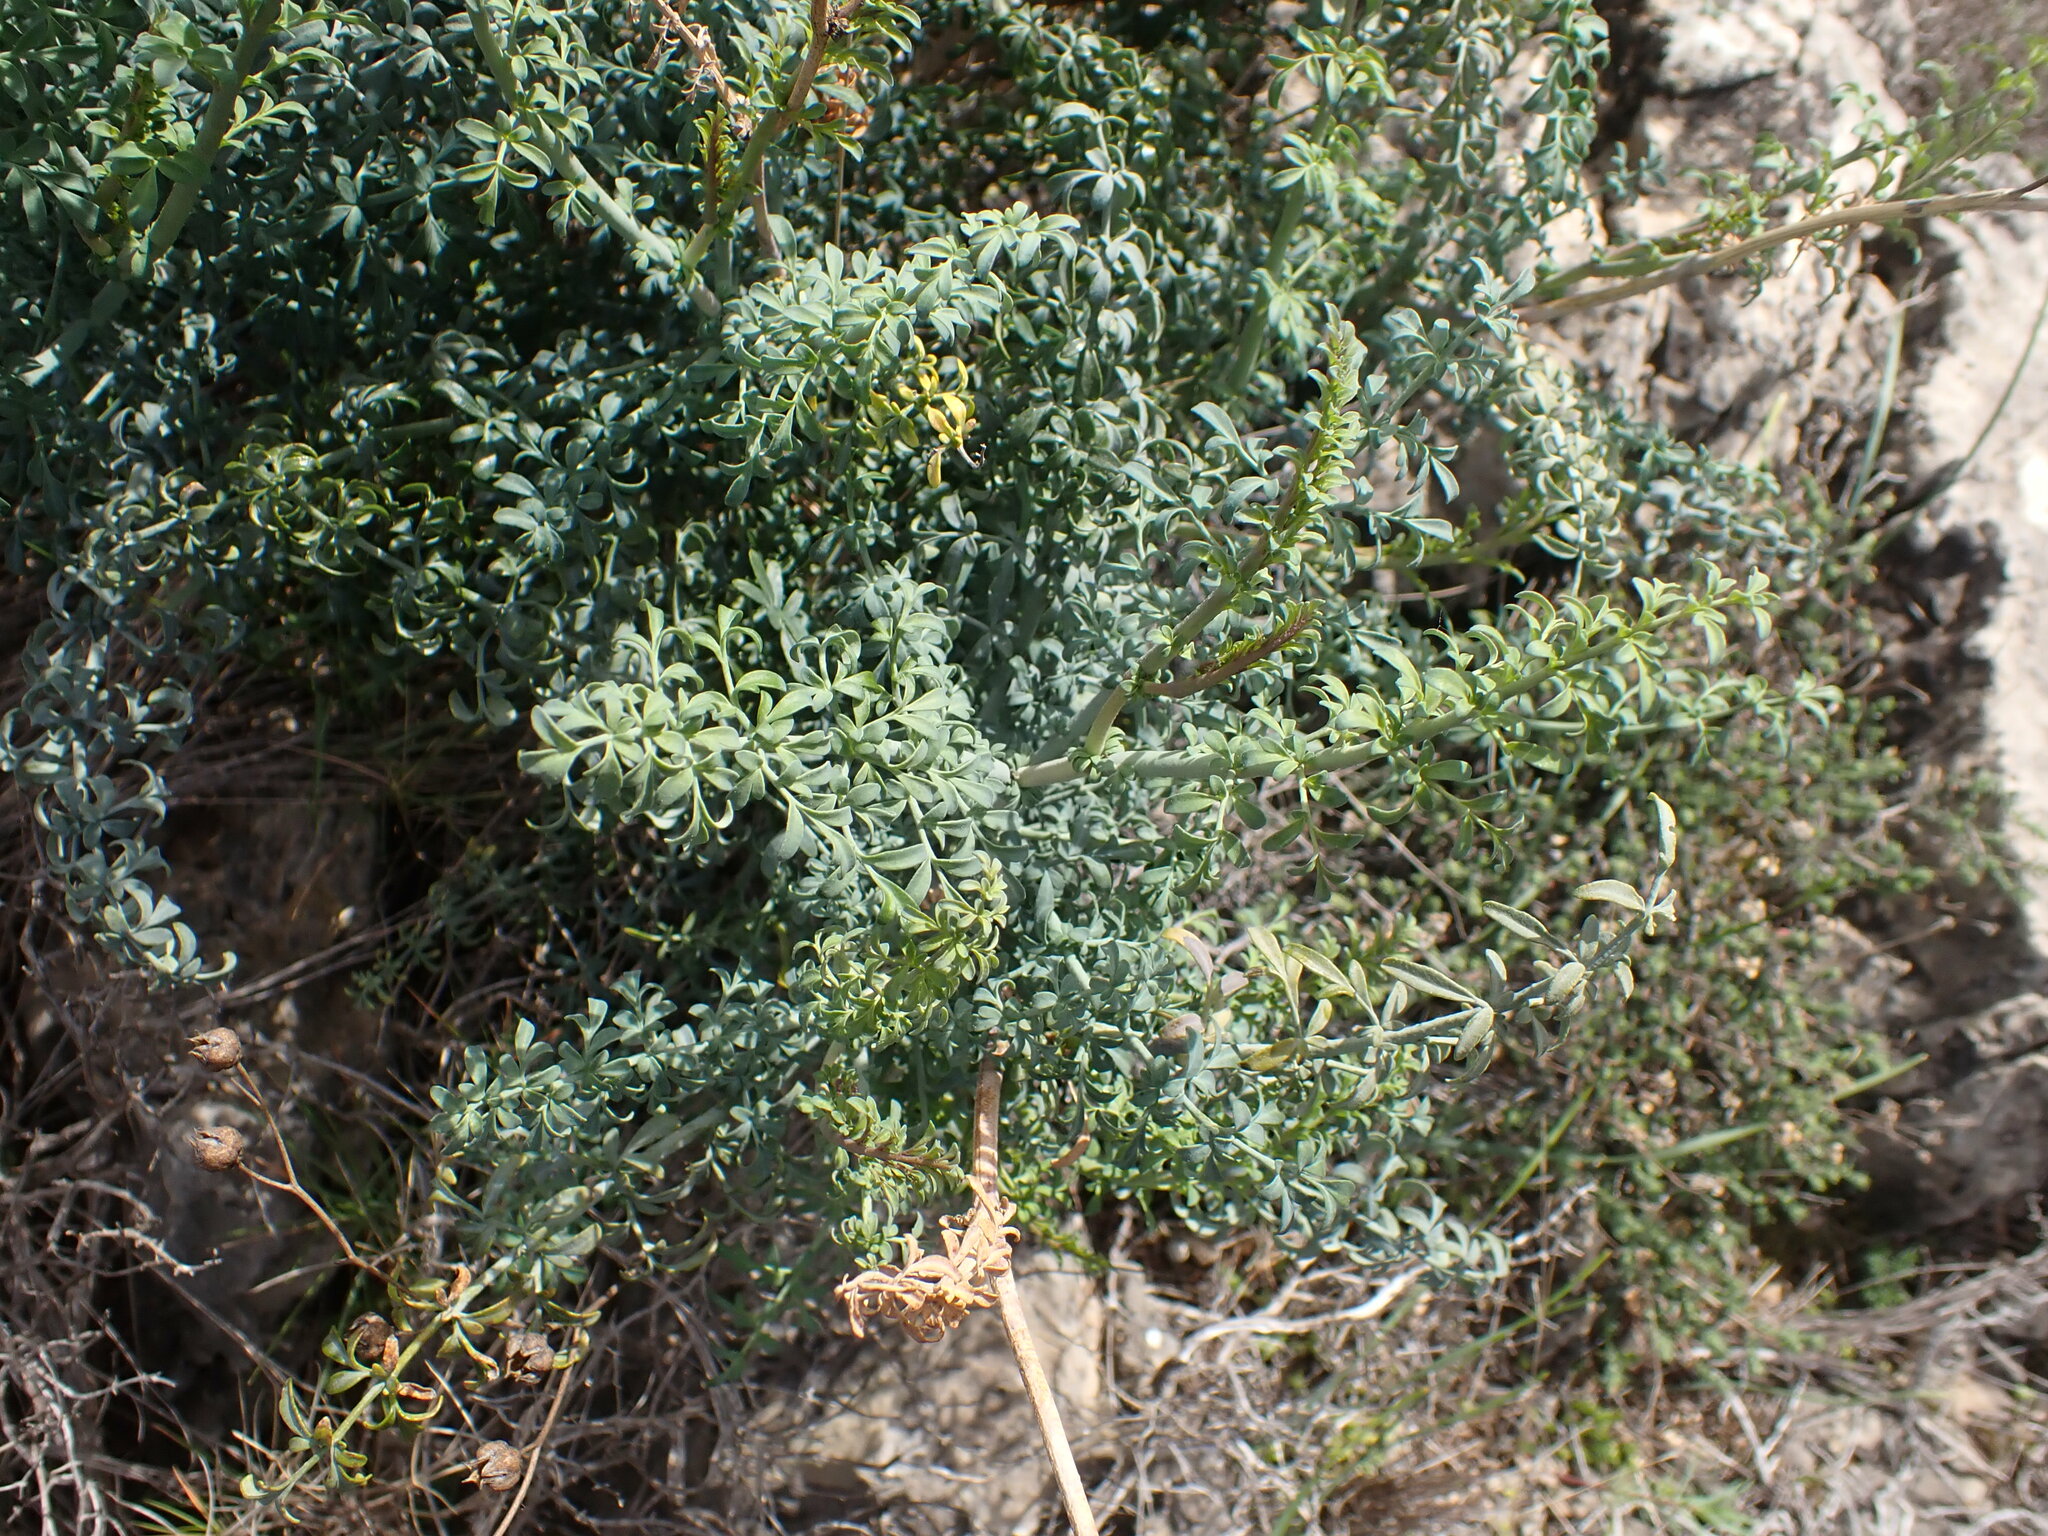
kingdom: Plantae
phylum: Tracheophyta
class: Magnoliopsida
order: Sapindales
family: Rutaceae
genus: Ruta
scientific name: Ruta angustifolia
